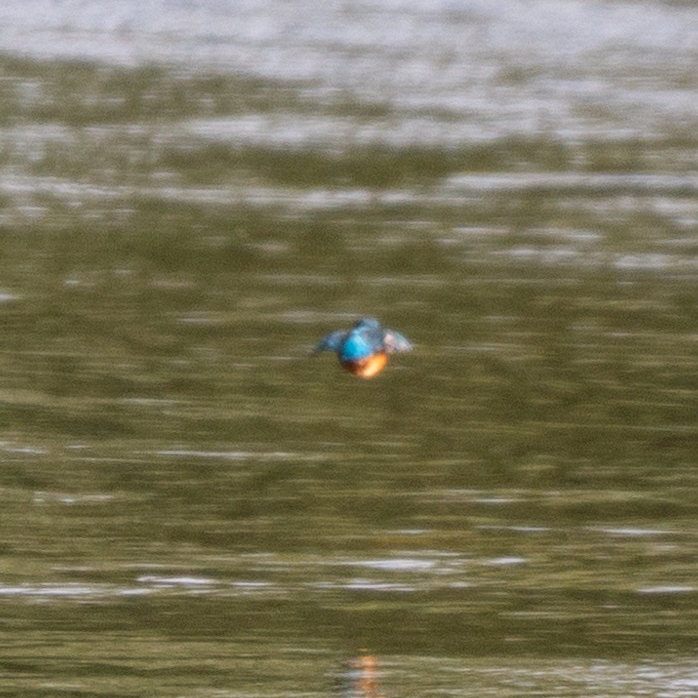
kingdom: Animalia
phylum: Chordata
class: Aves
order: Coraciiformes
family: Alcedinidae
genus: Alcedo
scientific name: Alcedo atthis
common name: Common kingfisher
